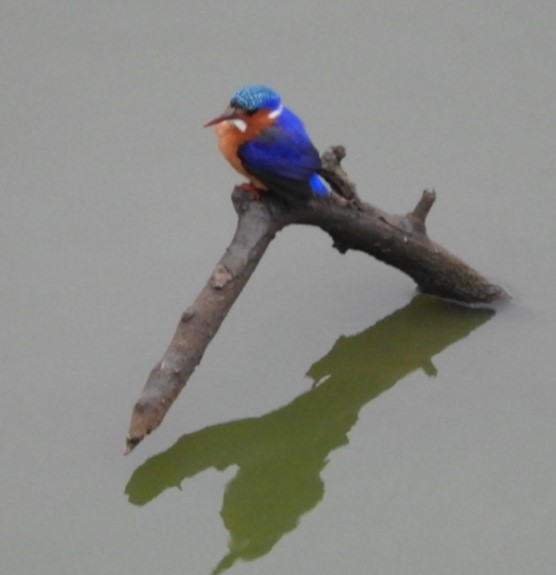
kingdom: Animalia
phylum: Chordata
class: Aves
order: Coraciiformes
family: Alcedinidae
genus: Corythornis
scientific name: Corythornis cristatus
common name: Malachite kingfisher
